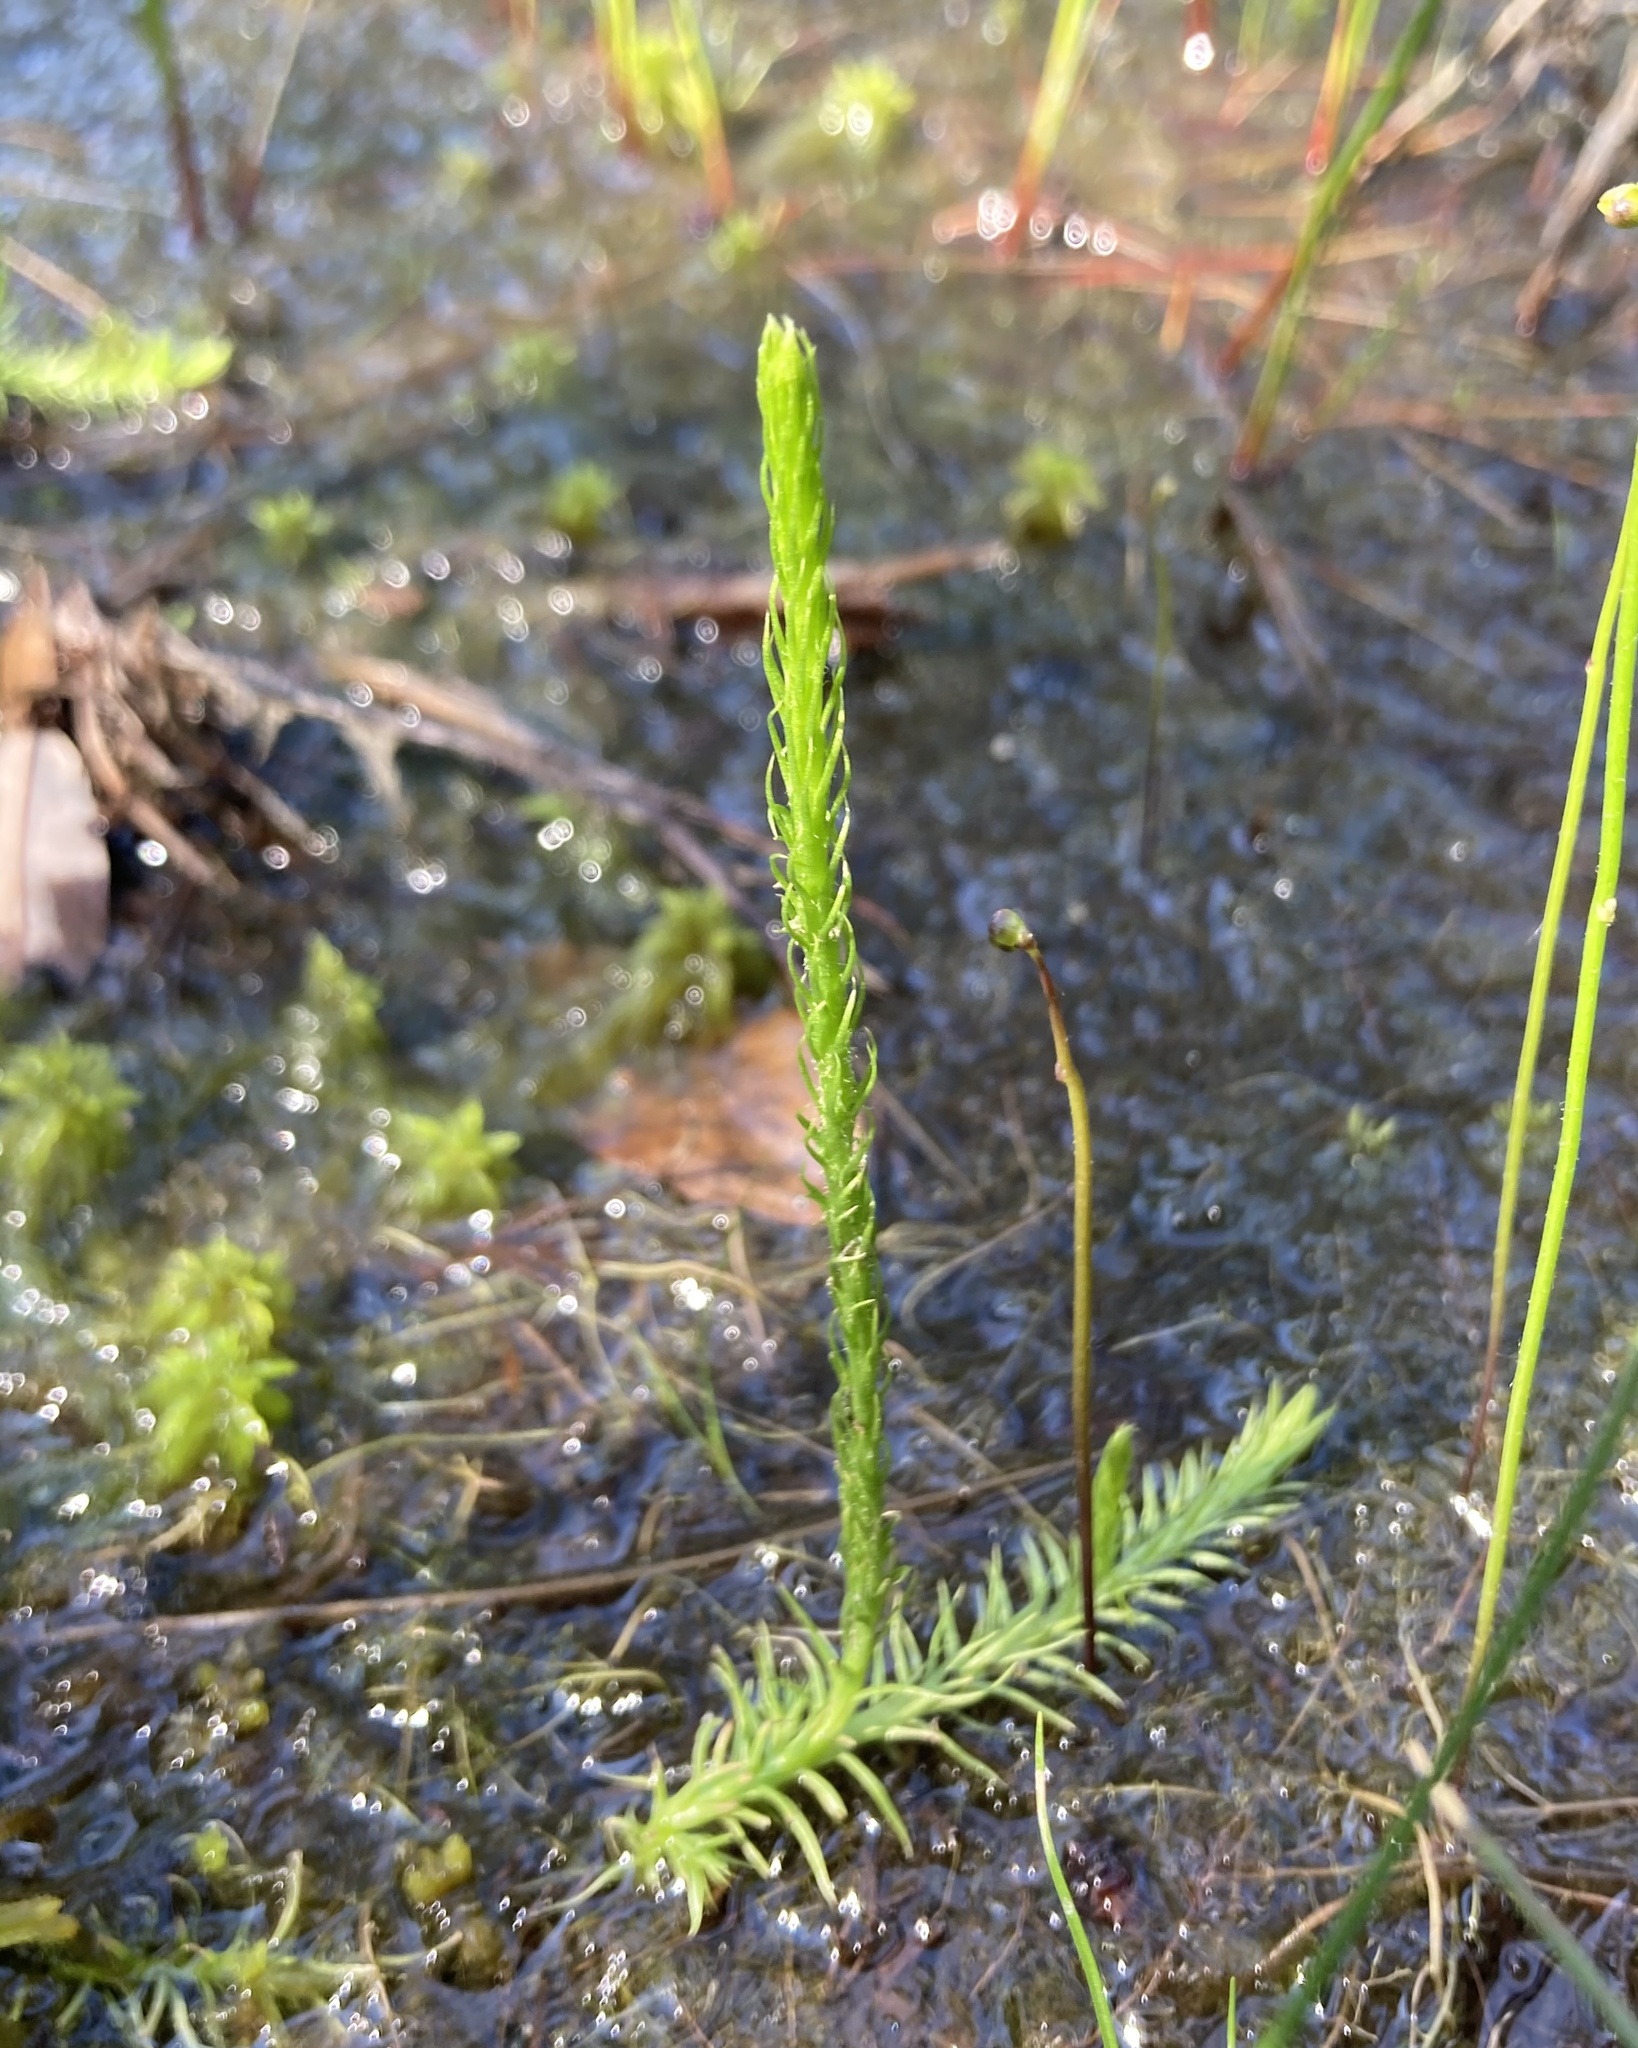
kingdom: Plantae
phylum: Tracheophyta
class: Lycopodiopsida
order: Lycopodiales
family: Lycopodiaceae
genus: Lycopodiella
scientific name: Lycopodiella appressa
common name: Appressed bog clubmoss
